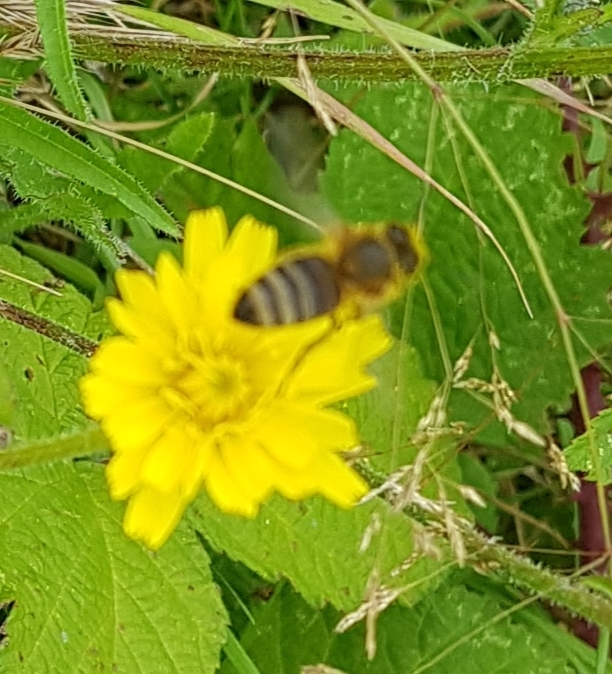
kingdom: Animalia
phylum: Arthropoda
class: Insecta
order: Hymenoptera
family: Apidae
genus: Apis
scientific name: Apis mellifera
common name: Honey bee
